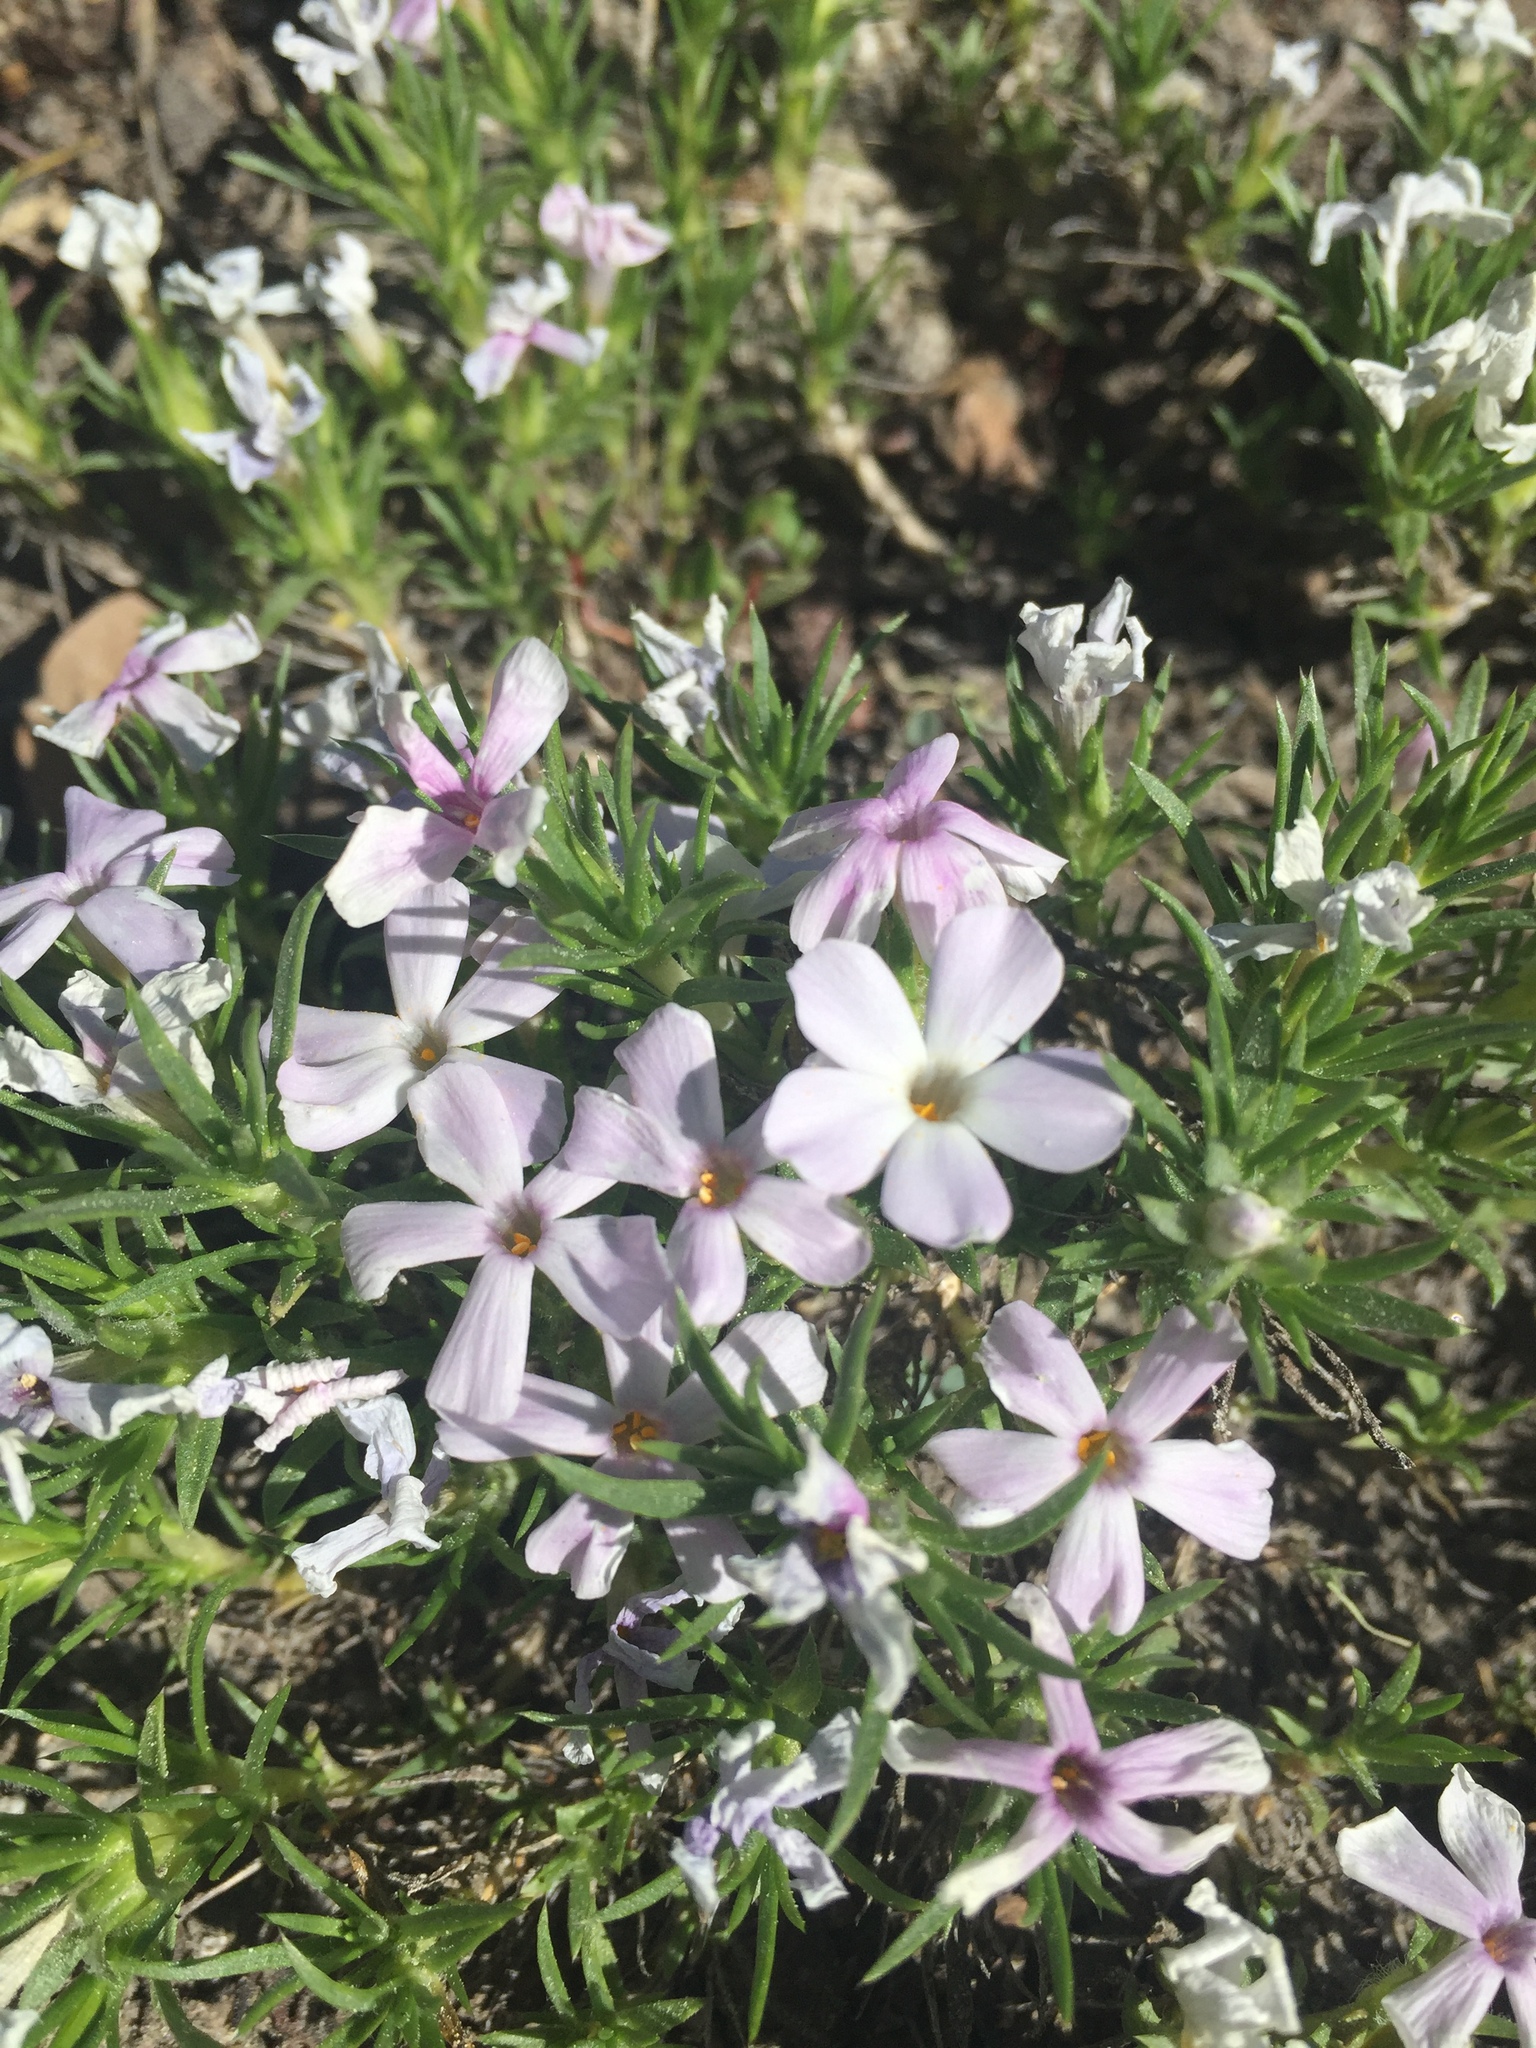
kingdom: Plantae
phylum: Tracheophyta
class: Magnoliopsida
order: Ericales
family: Polemoniaceae
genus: Phlox
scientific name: Phlox diffusa
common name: Mat phlox
